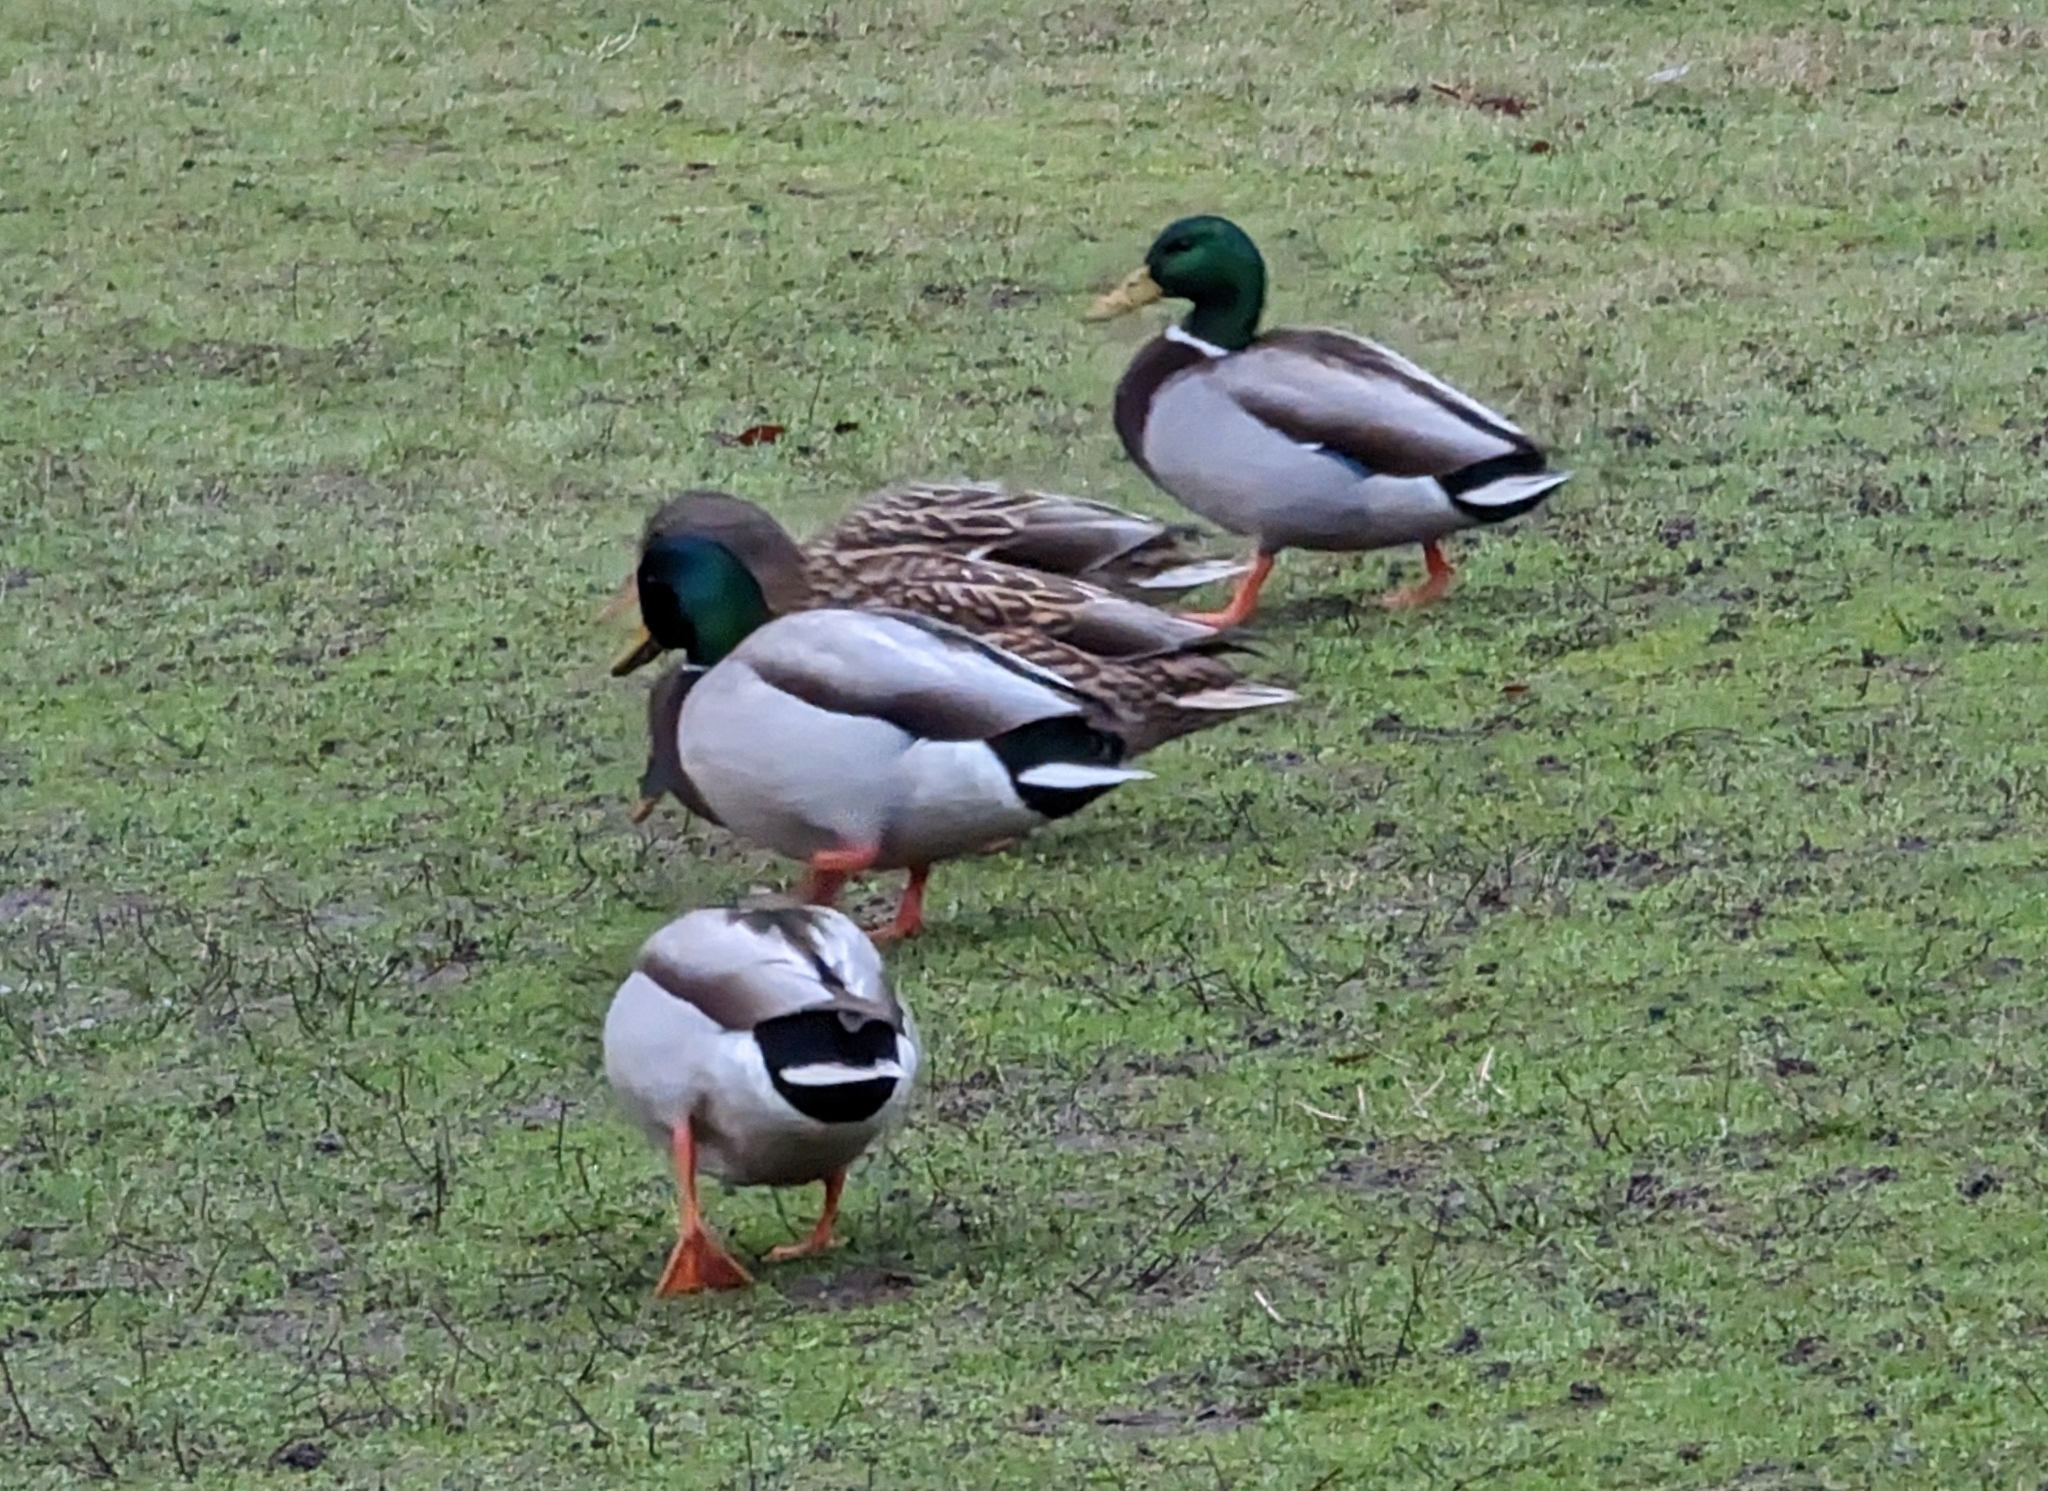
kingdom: Animalia
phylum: Chordata
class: Aves
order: Anseriformes
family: Anatidae
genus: Anas
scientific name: Anas platyrhynchos
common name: Mallard
